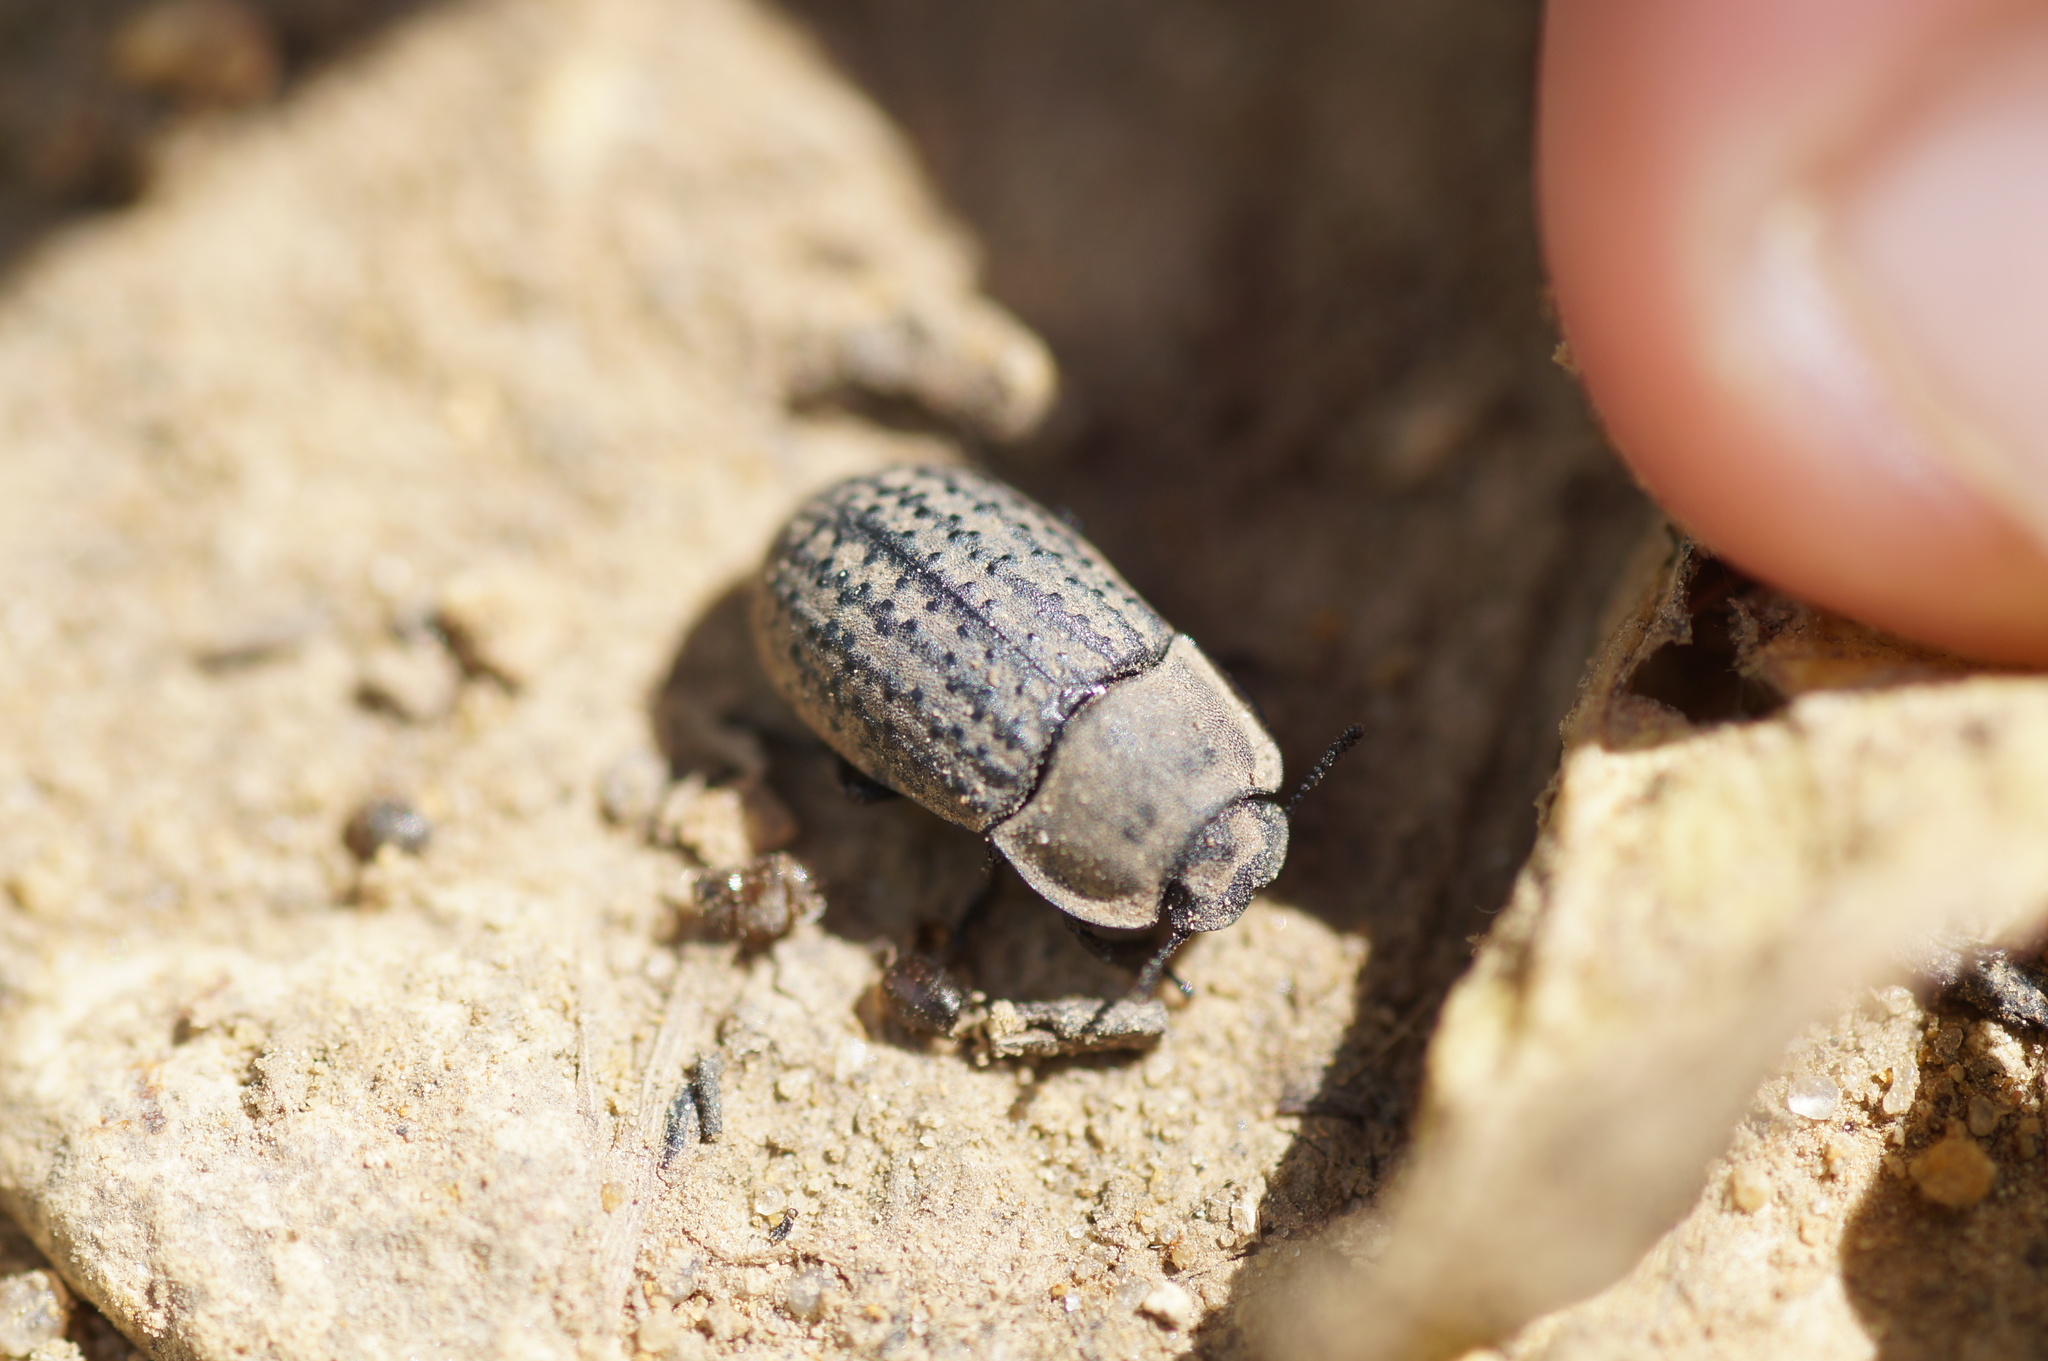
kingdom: Animalia
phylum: Arthropoda
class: Insecta
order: Coleoptera
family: Tenebrionidae
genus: Opatrum
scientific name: Opatrum sabulosum
